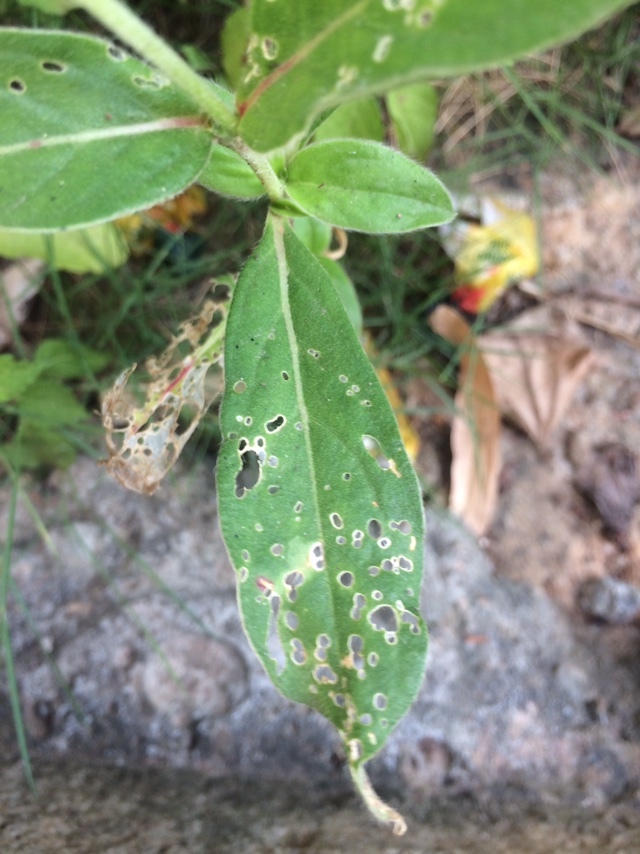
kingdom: Plantae
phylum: Tracheophyta
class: Magnoliopsida
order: Caryophyllales
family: Amaranthaceae
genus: Gomphrena
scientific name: Gomphrena globosa
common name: Common globe amaranth
